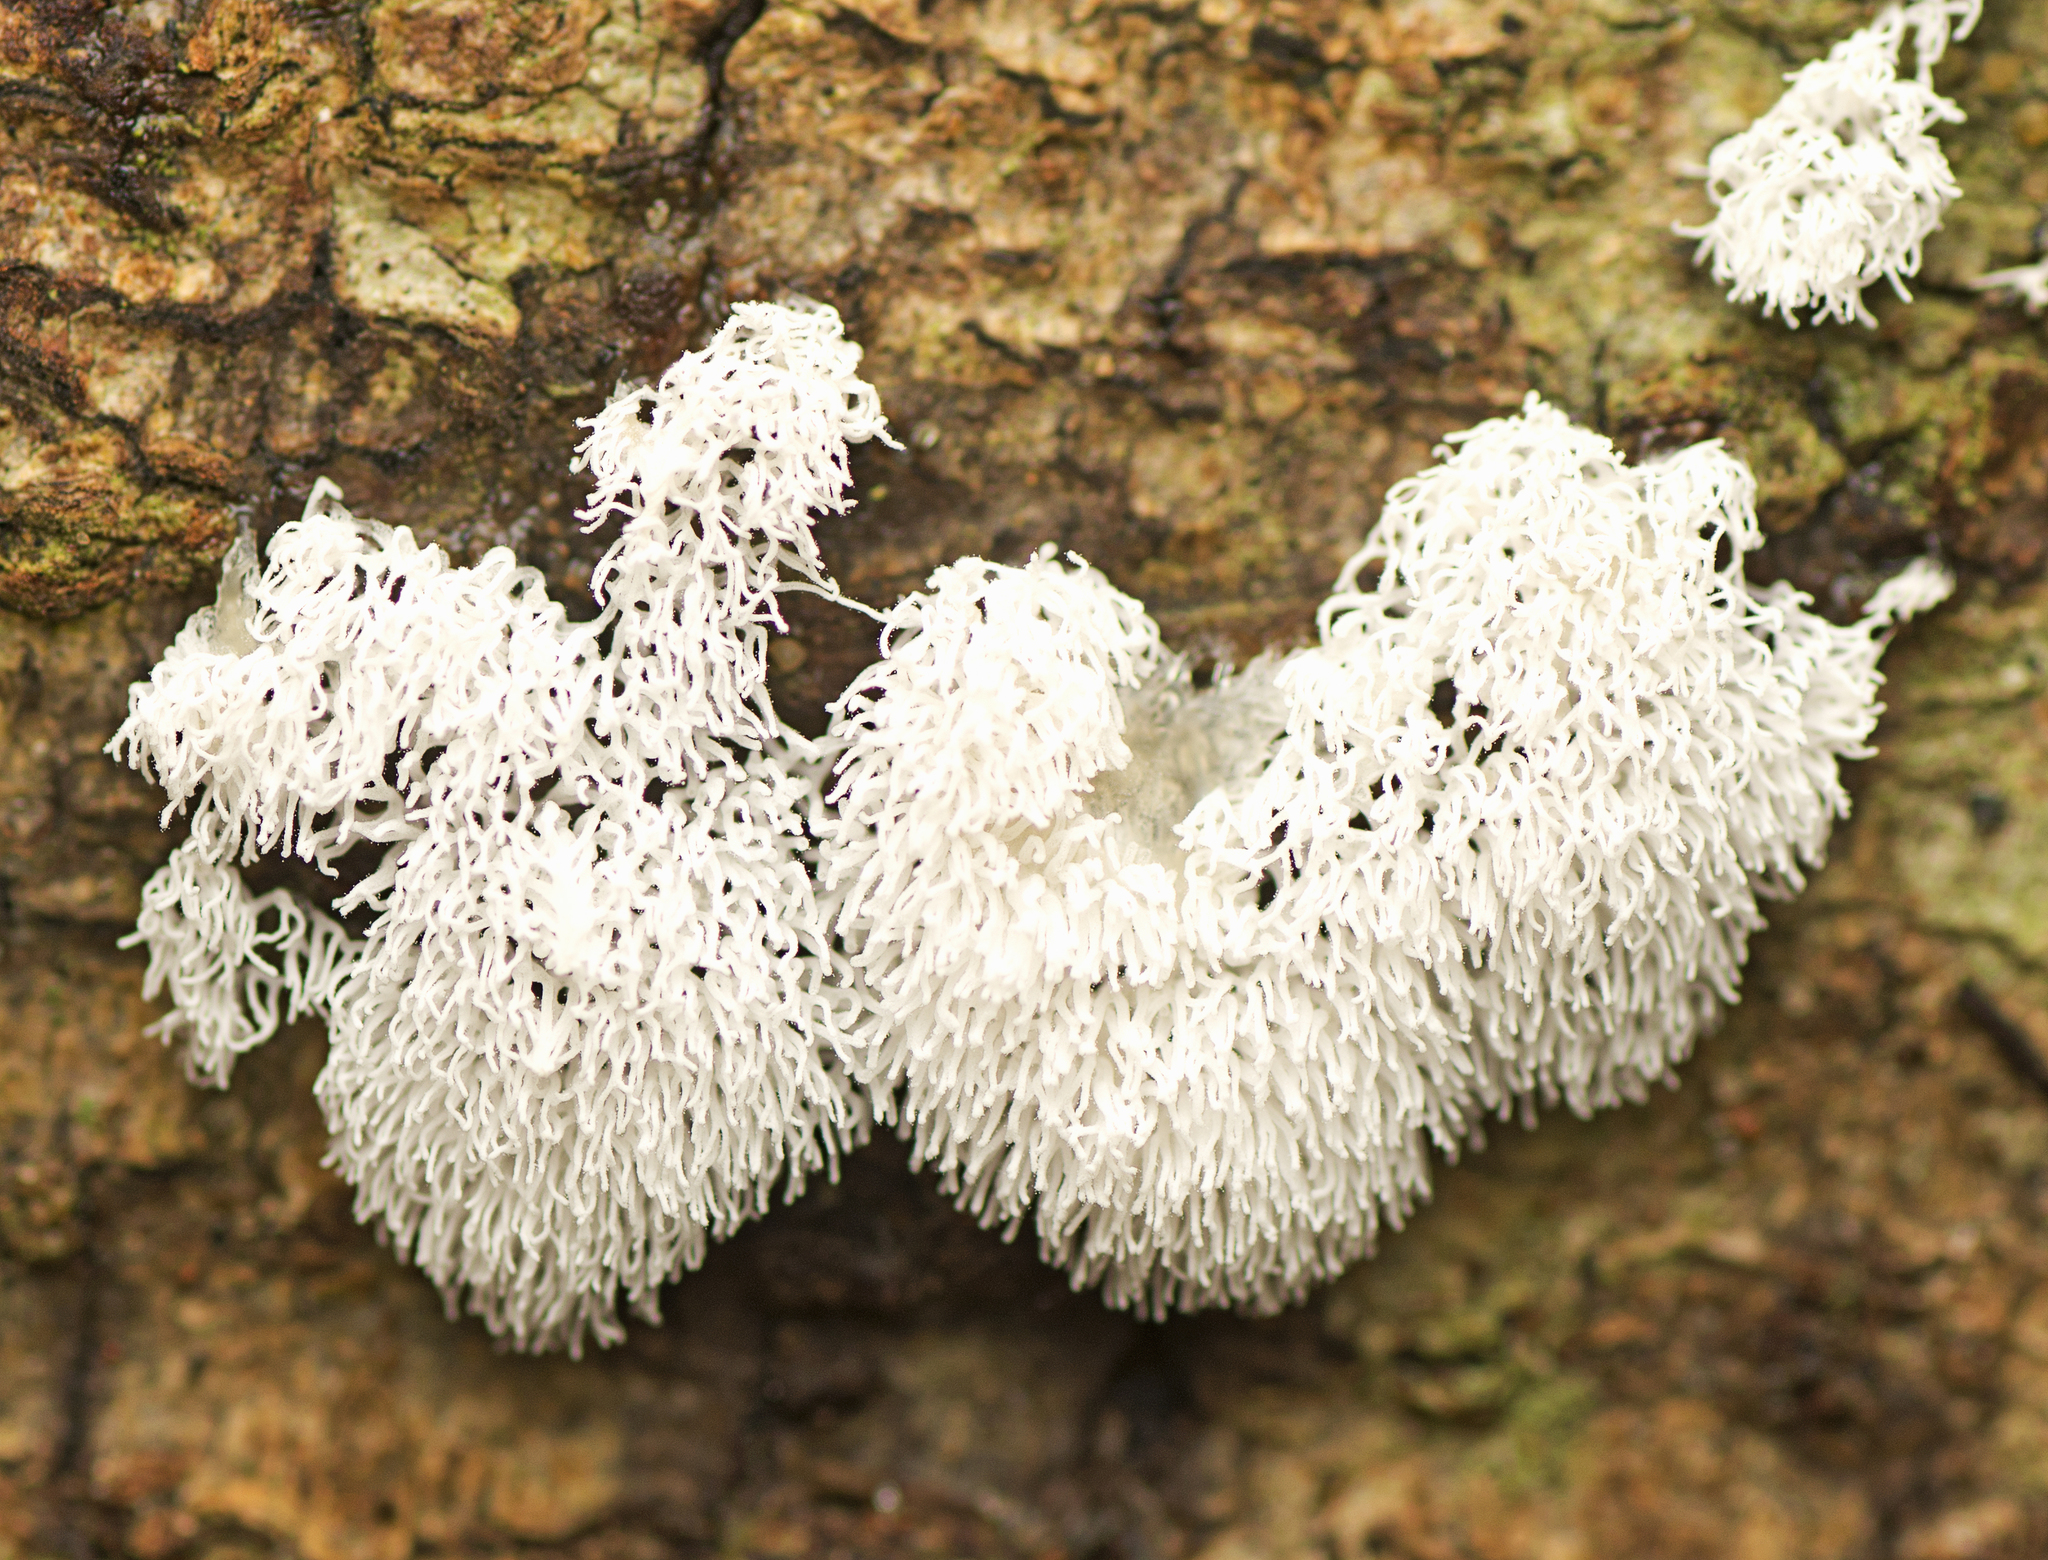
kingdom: Protozoa
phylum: Mycetozoa
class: Protosteliomycetes
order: Ceratiomyxales
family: Ceratiomyxaceae
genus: Ceratiomyxa
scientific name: Ceratiomyxa fruticulosa
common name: Honeycomb coral slime mold
